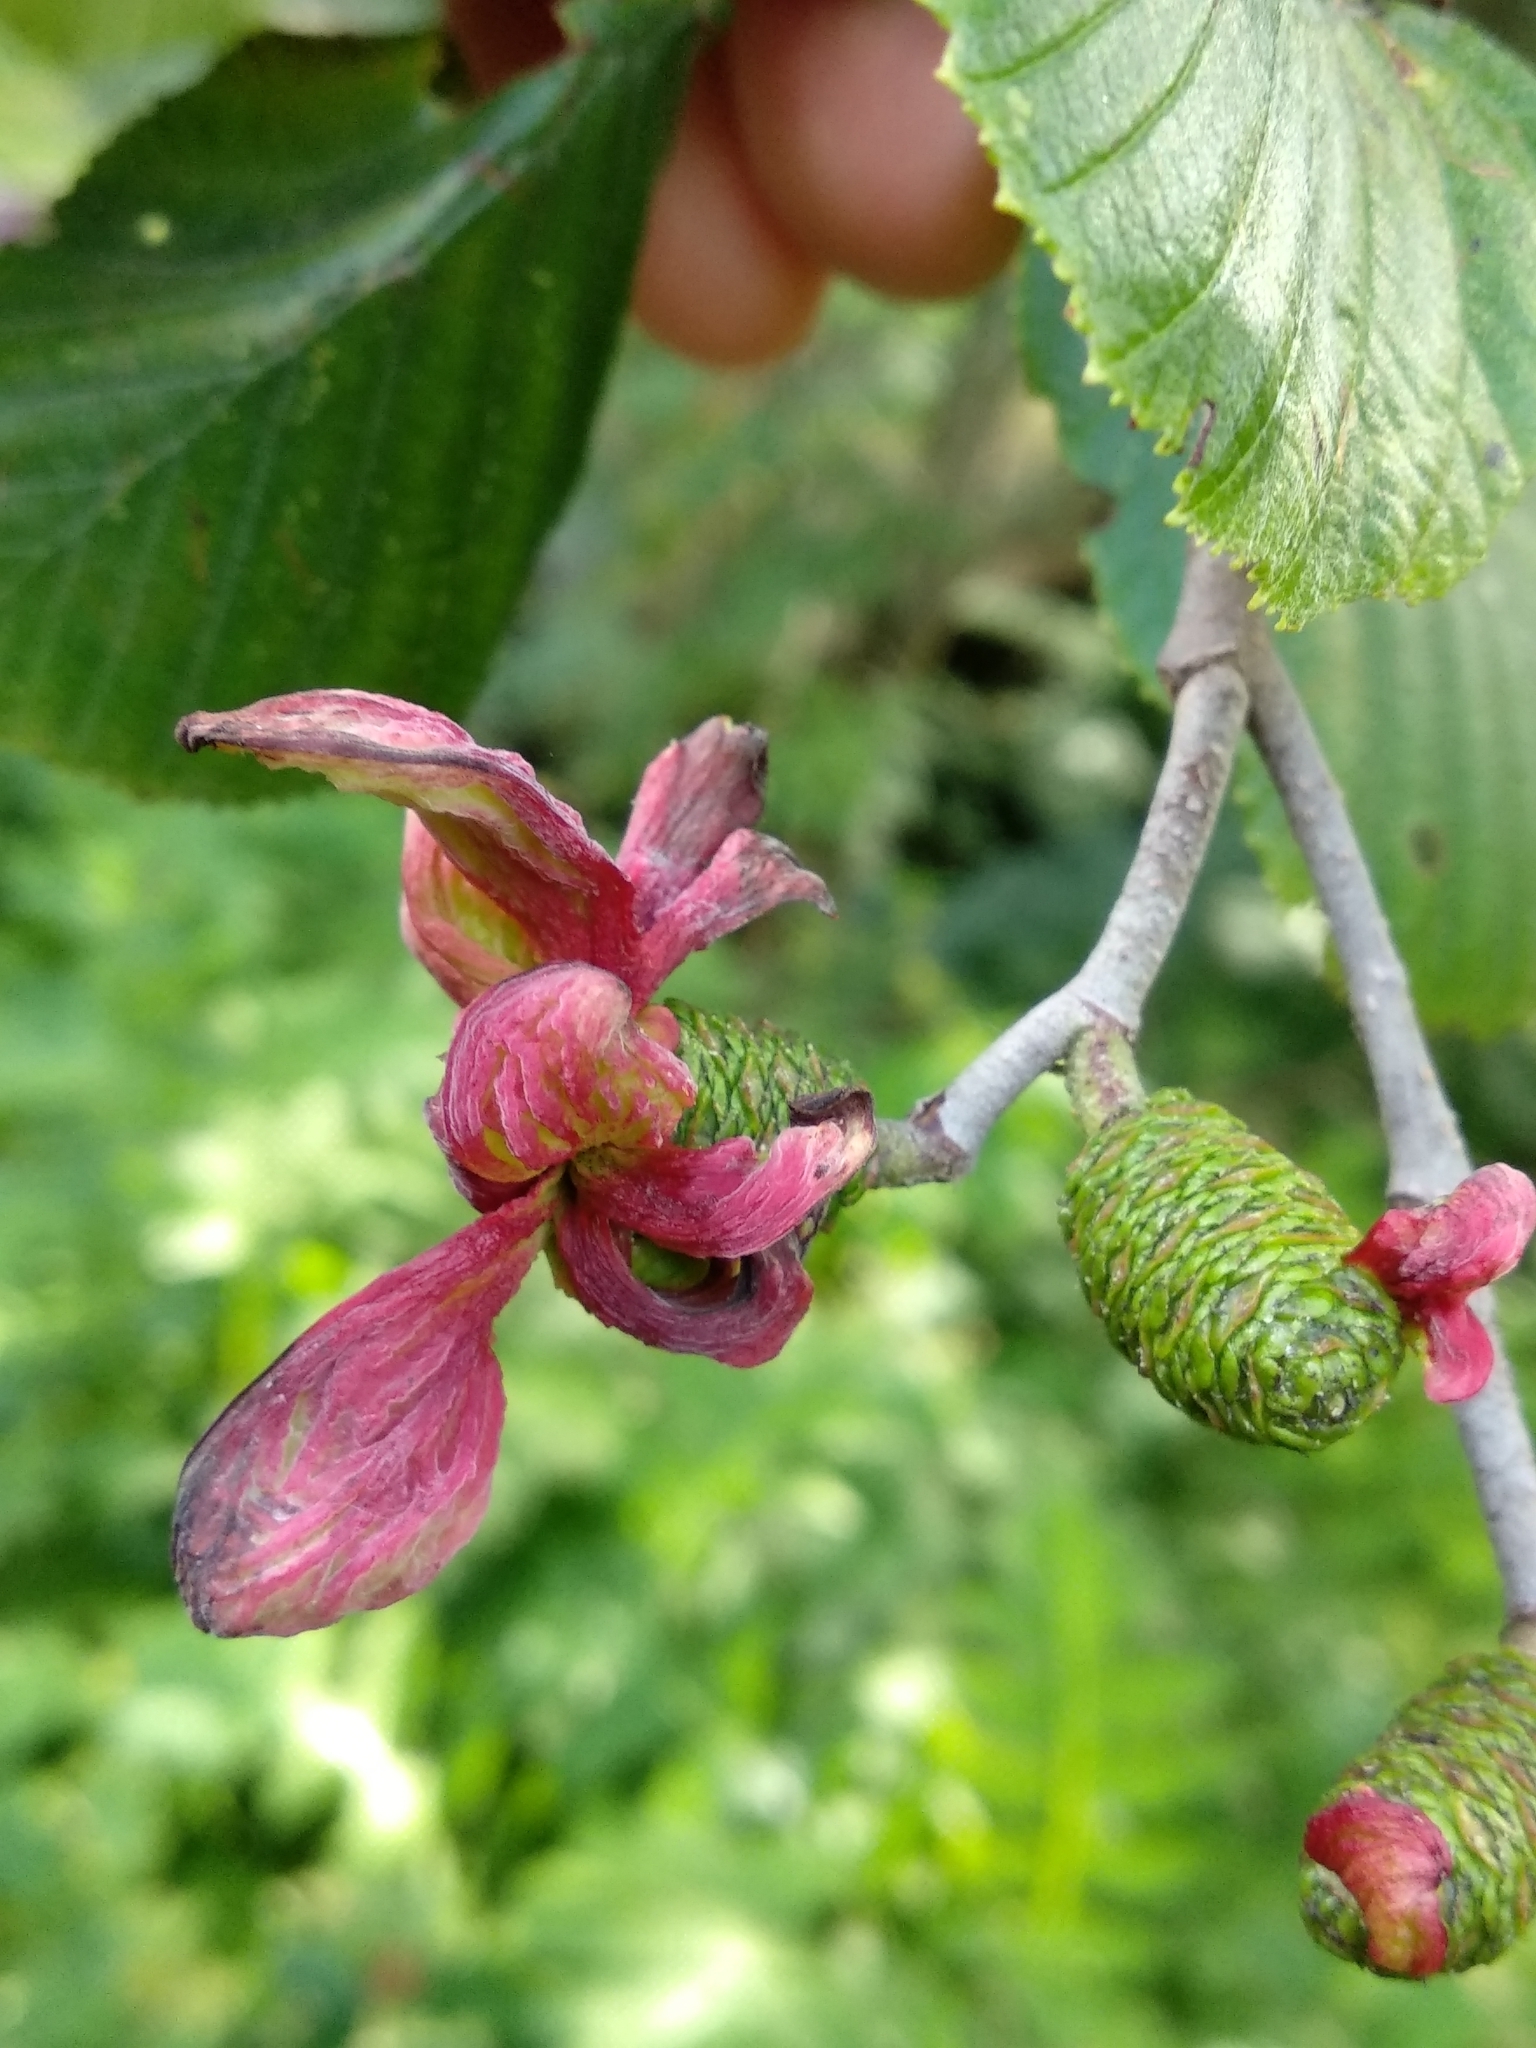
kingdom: Fungi
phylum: Ascomycota
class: Taphrinomycetes
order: Taphrinales
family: Taphrinaceae
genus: Taphrina
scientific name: Taphrina alni
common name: Alder tongue
